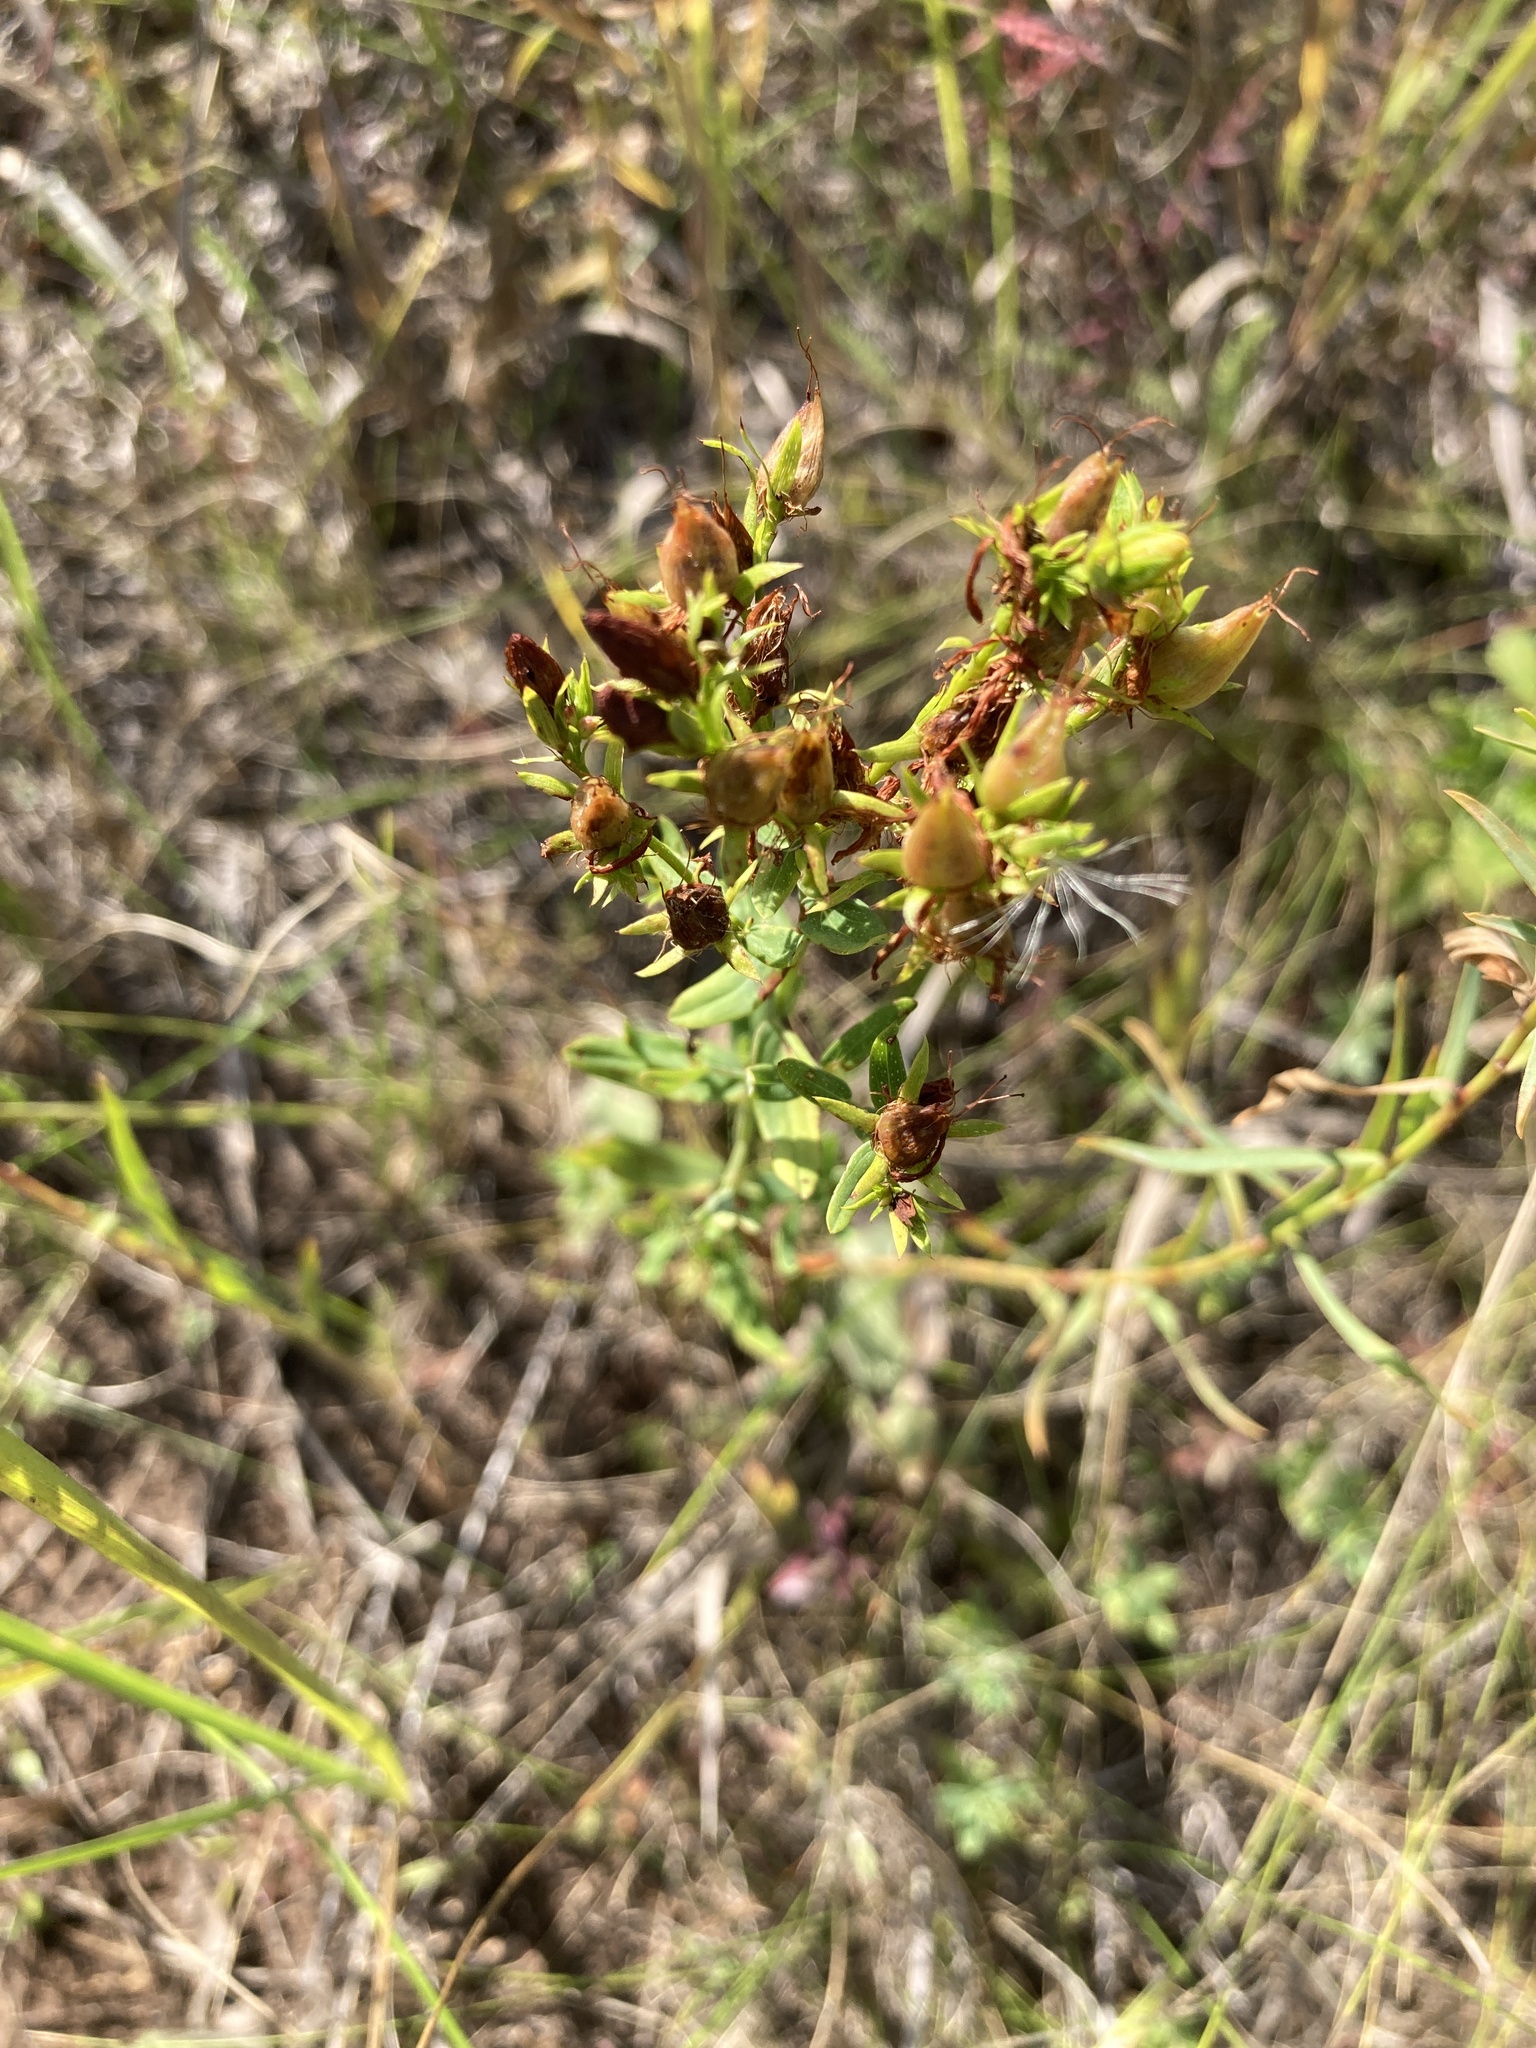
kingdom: Plantae
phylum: Tracheophyta
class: Magnoliopsida
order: Malpighiales
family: Hypericaceae
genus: Hypericum
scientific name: Hypericum perforatum
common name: Common st. johnswort
